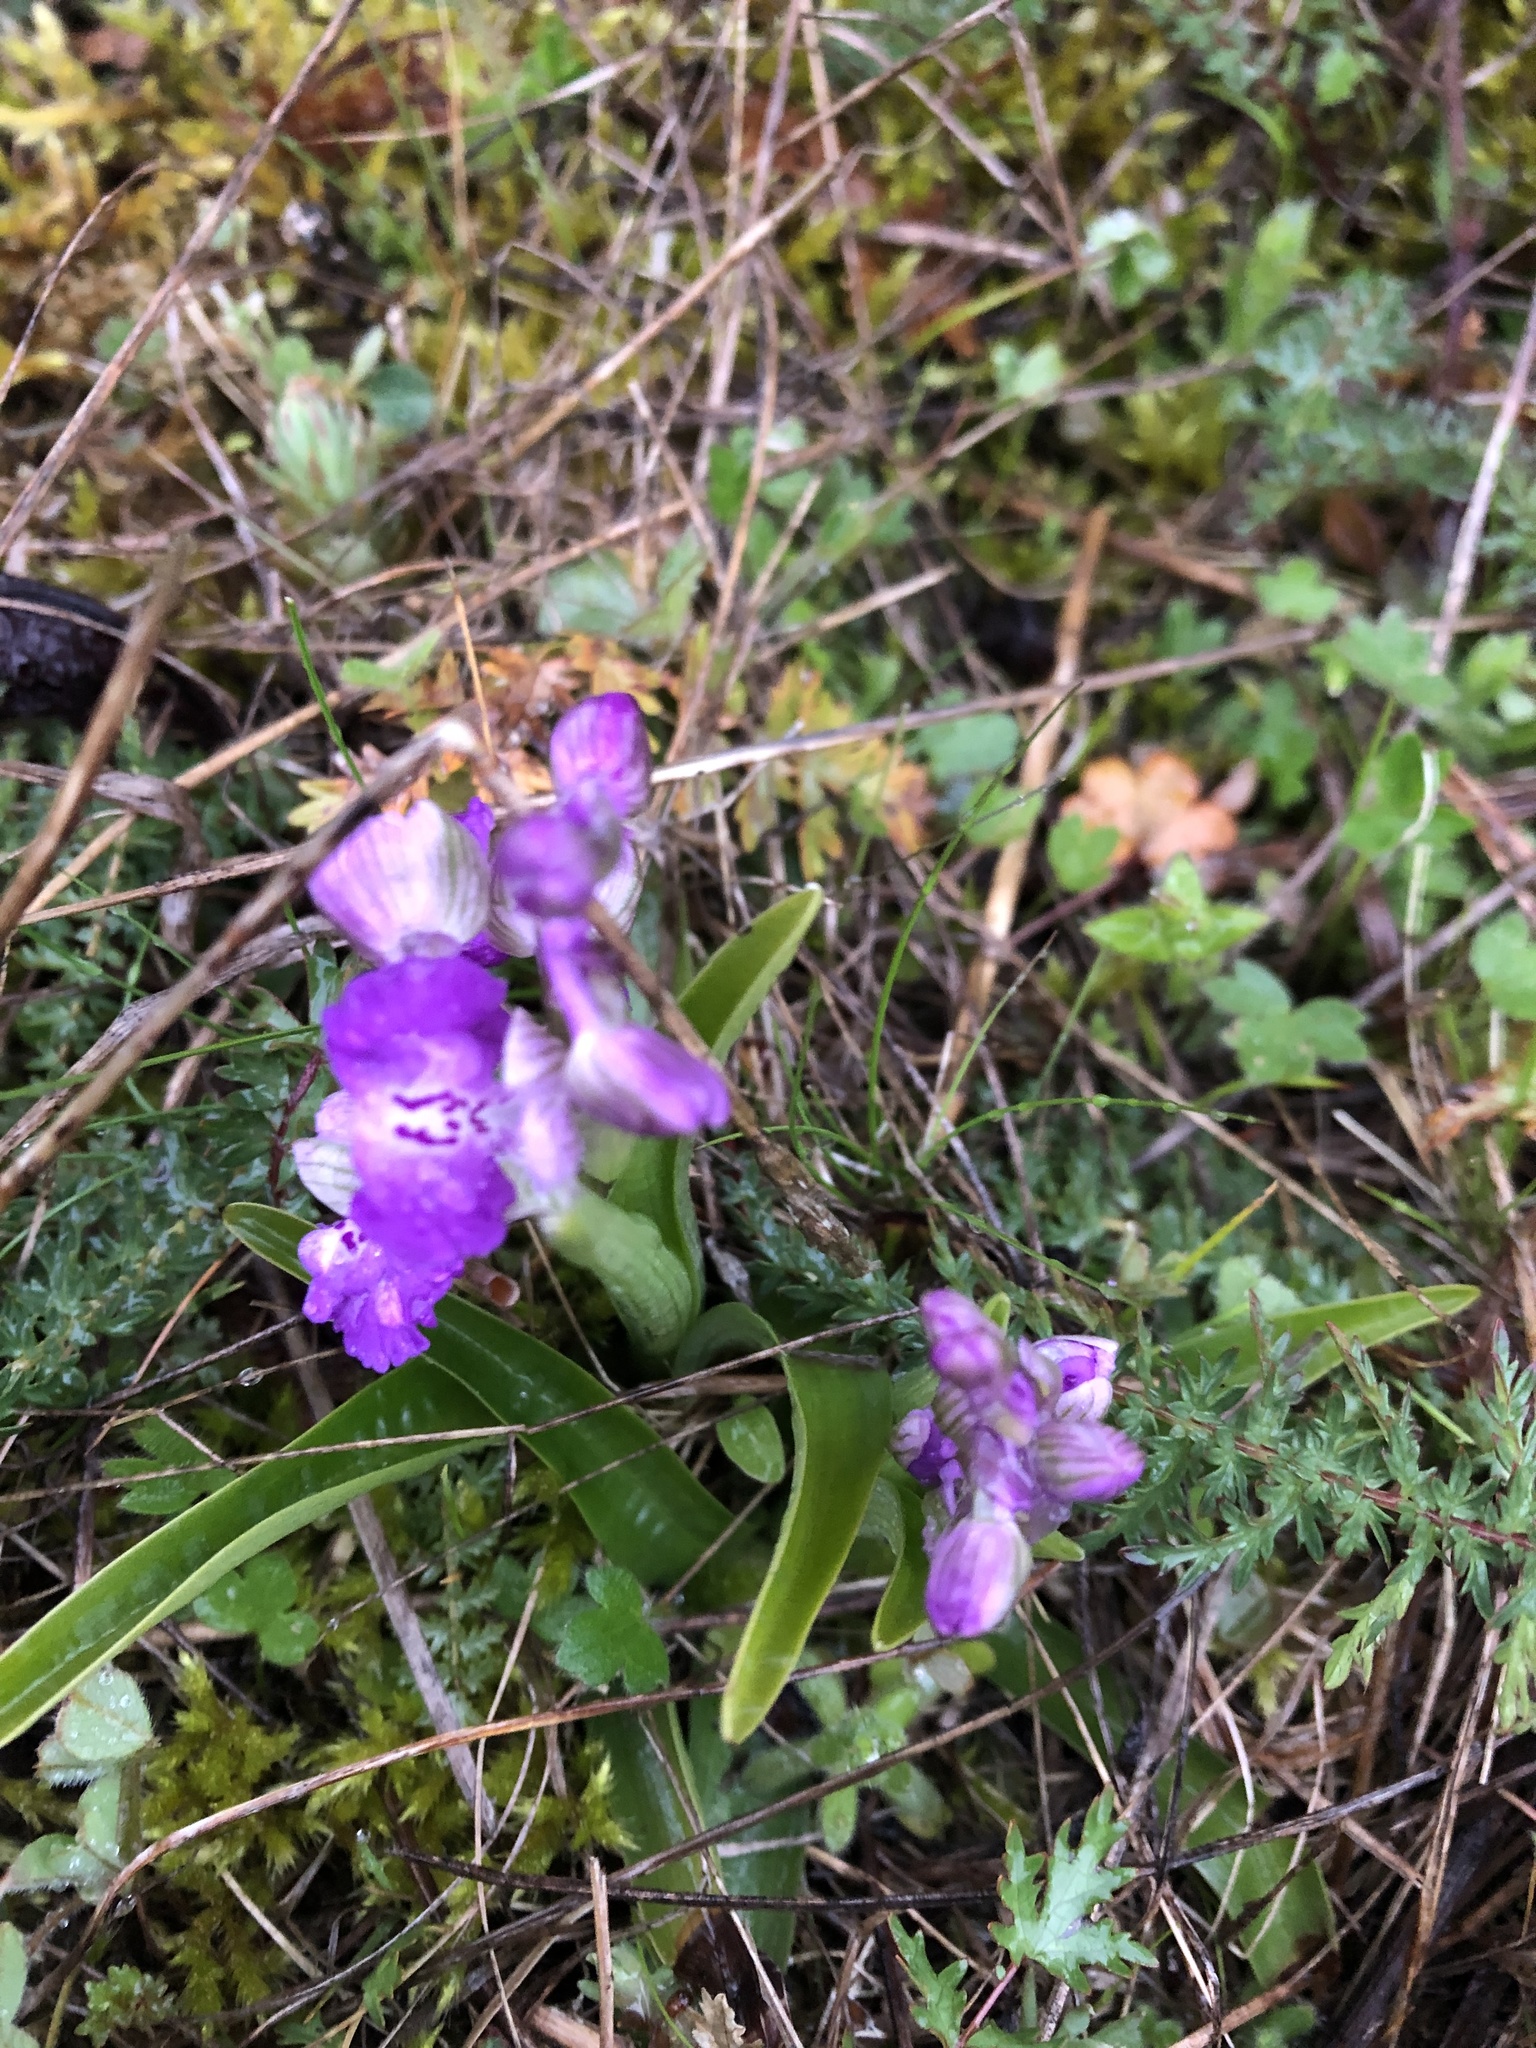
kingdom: Plantae
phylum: Tracheophyta
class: Liliopsida
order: Asparagales
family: Orchidaceae
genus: Anacamptis
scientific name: Anacamptis morio
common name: Green-winged orchid
